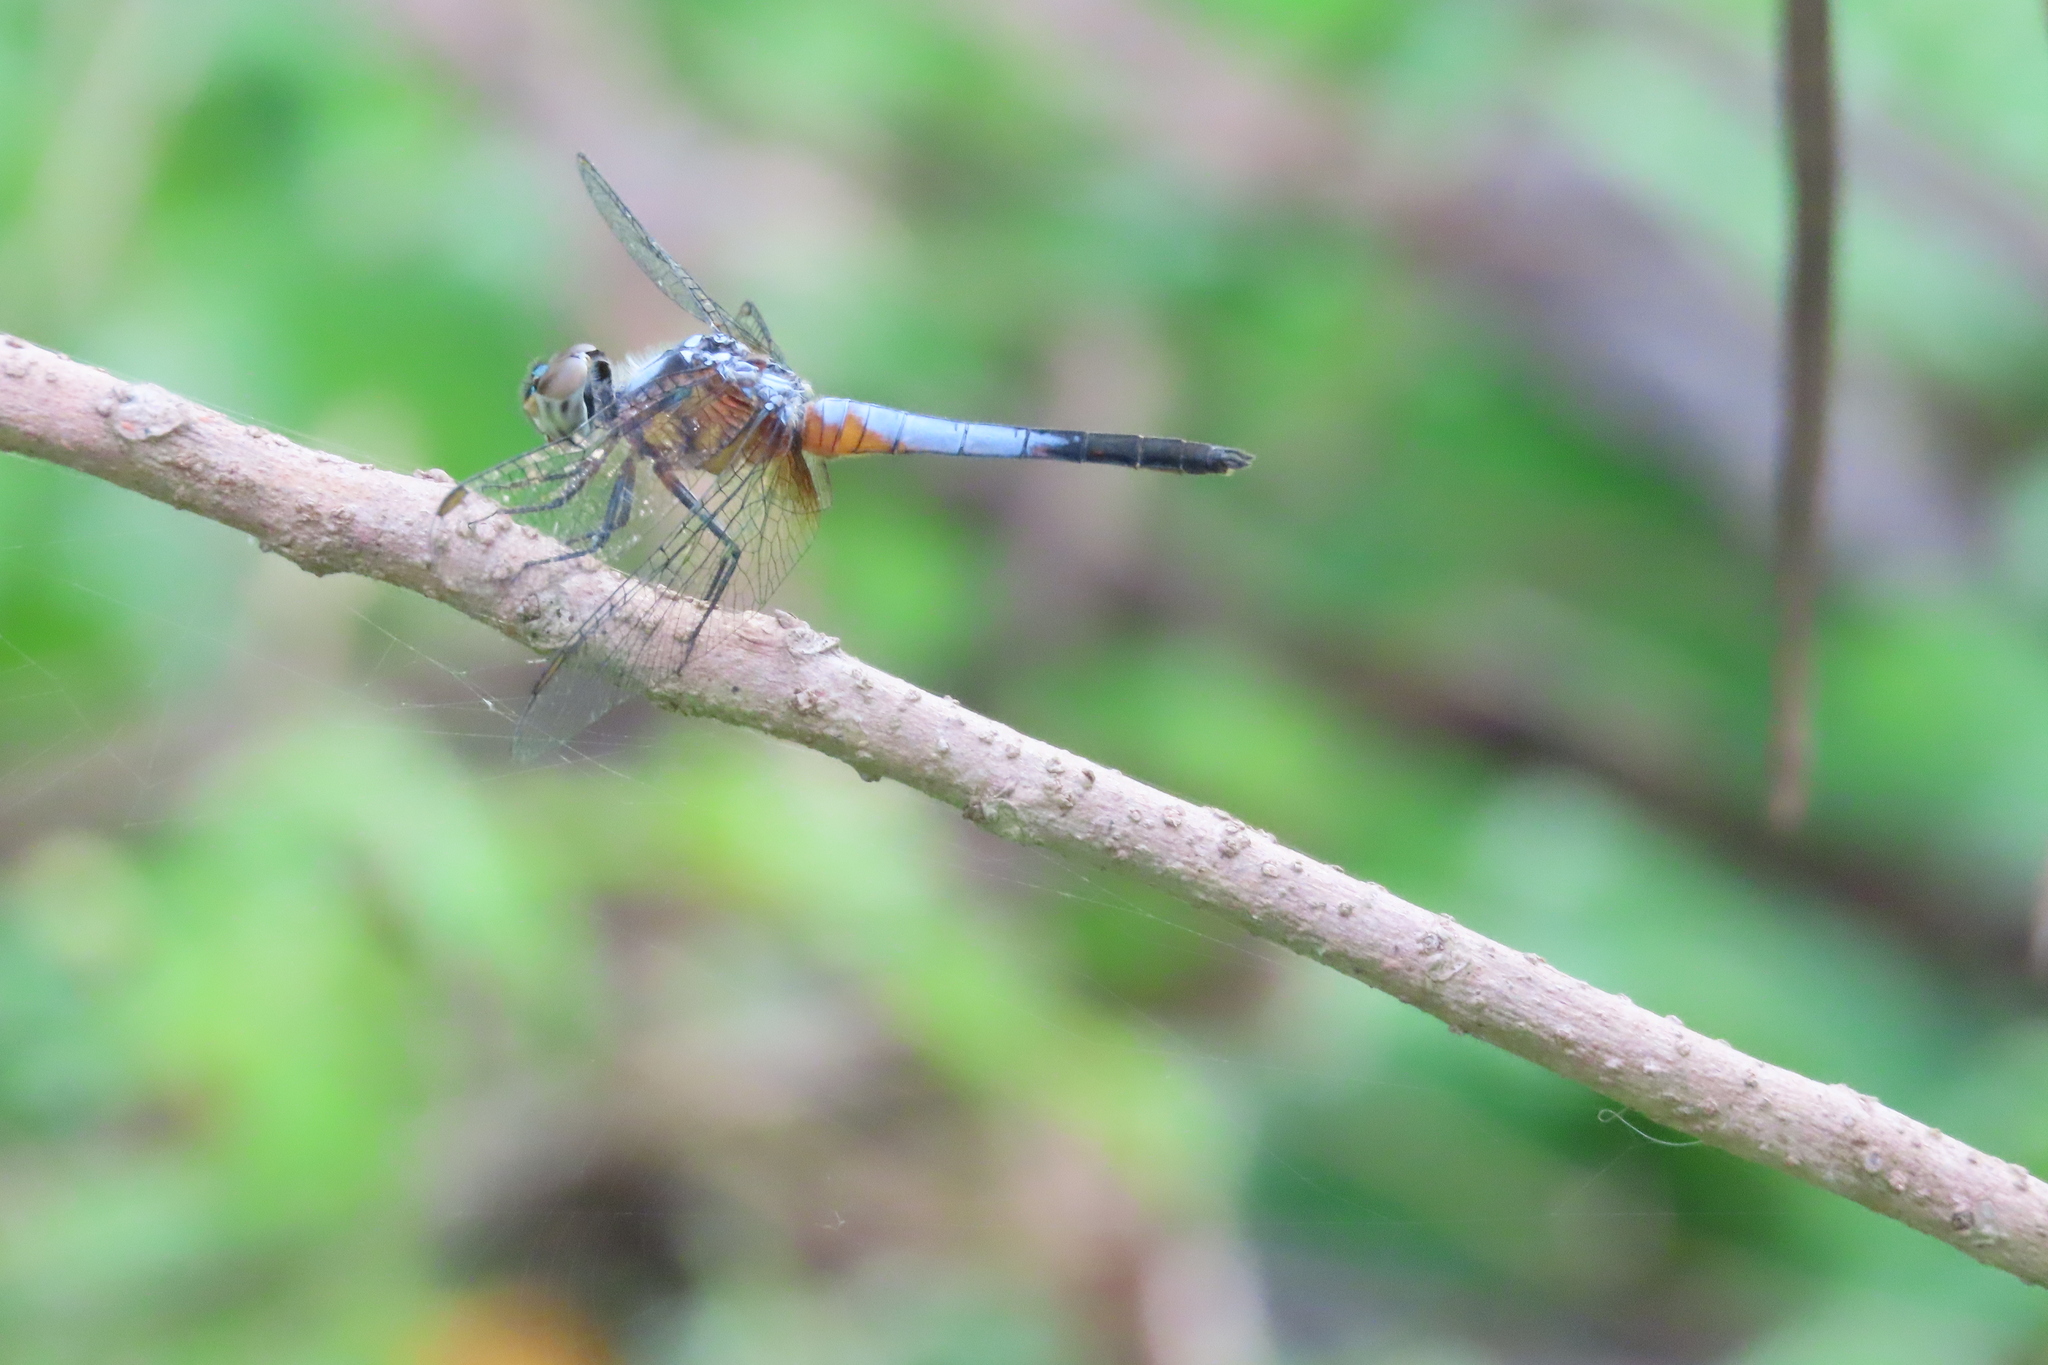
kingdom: Animalia
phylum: Arthropoda
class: Insecta
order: Odonata
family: Libellulidae
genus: Brachydiplax
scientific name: Brachydiplax chalybea
